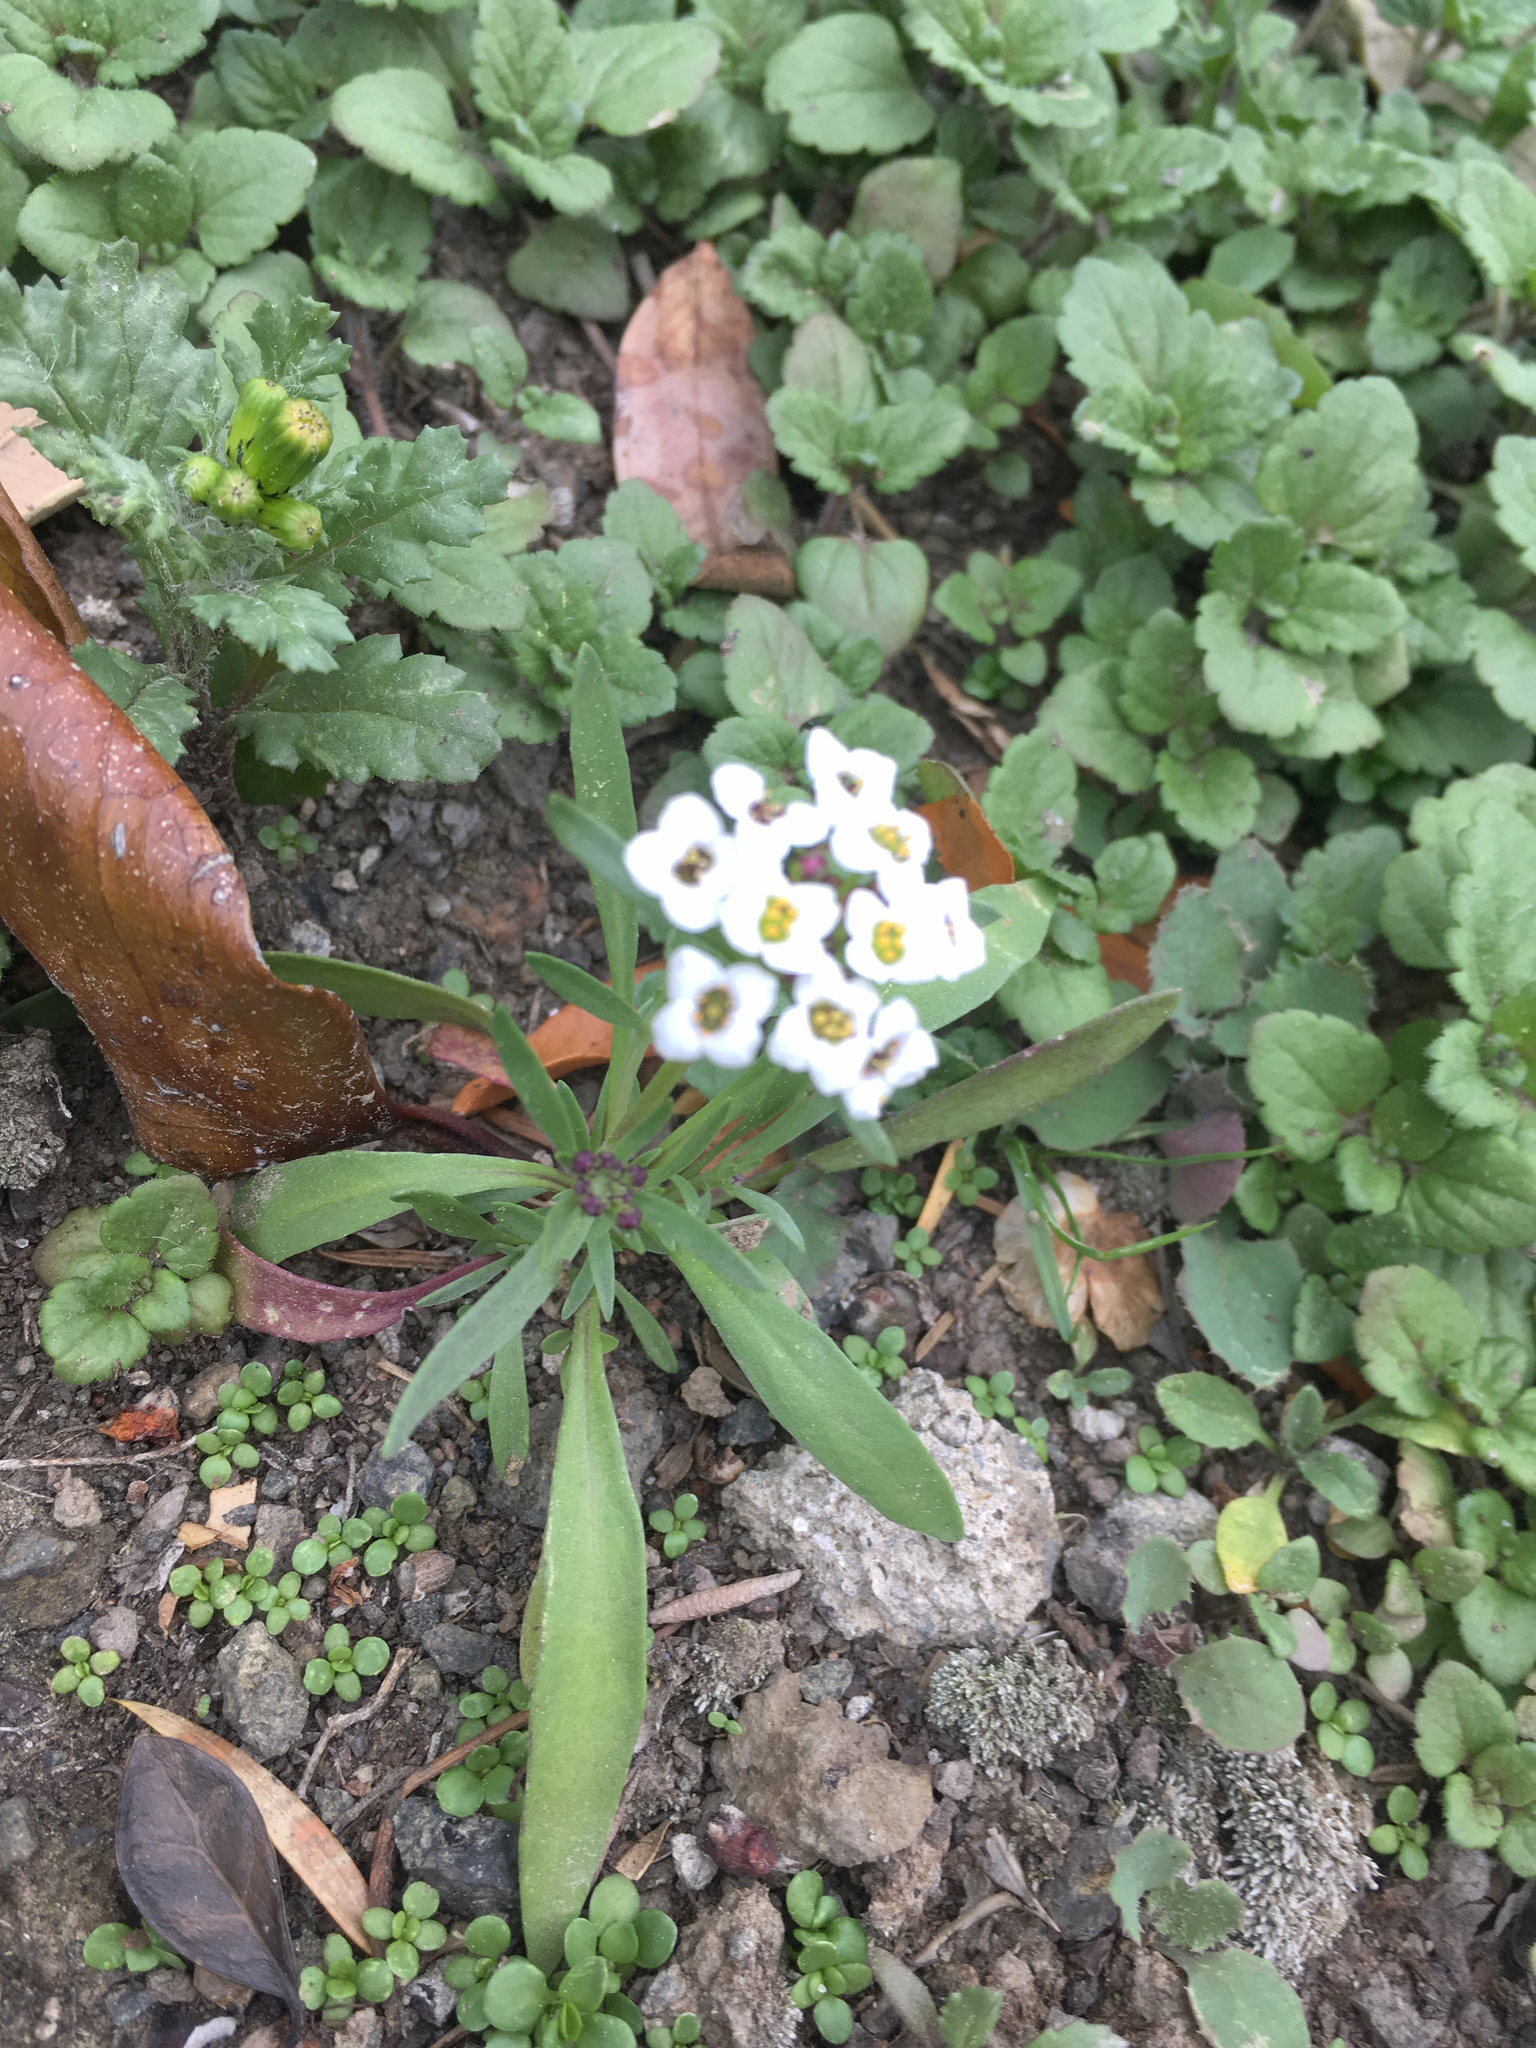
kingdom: Plantae
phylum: Tracheophyta
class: Magnoliopsida
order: Brassicales
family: Brassicaceae
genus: Lobularia
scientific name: Lobularia maritima
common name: Sweet alison
